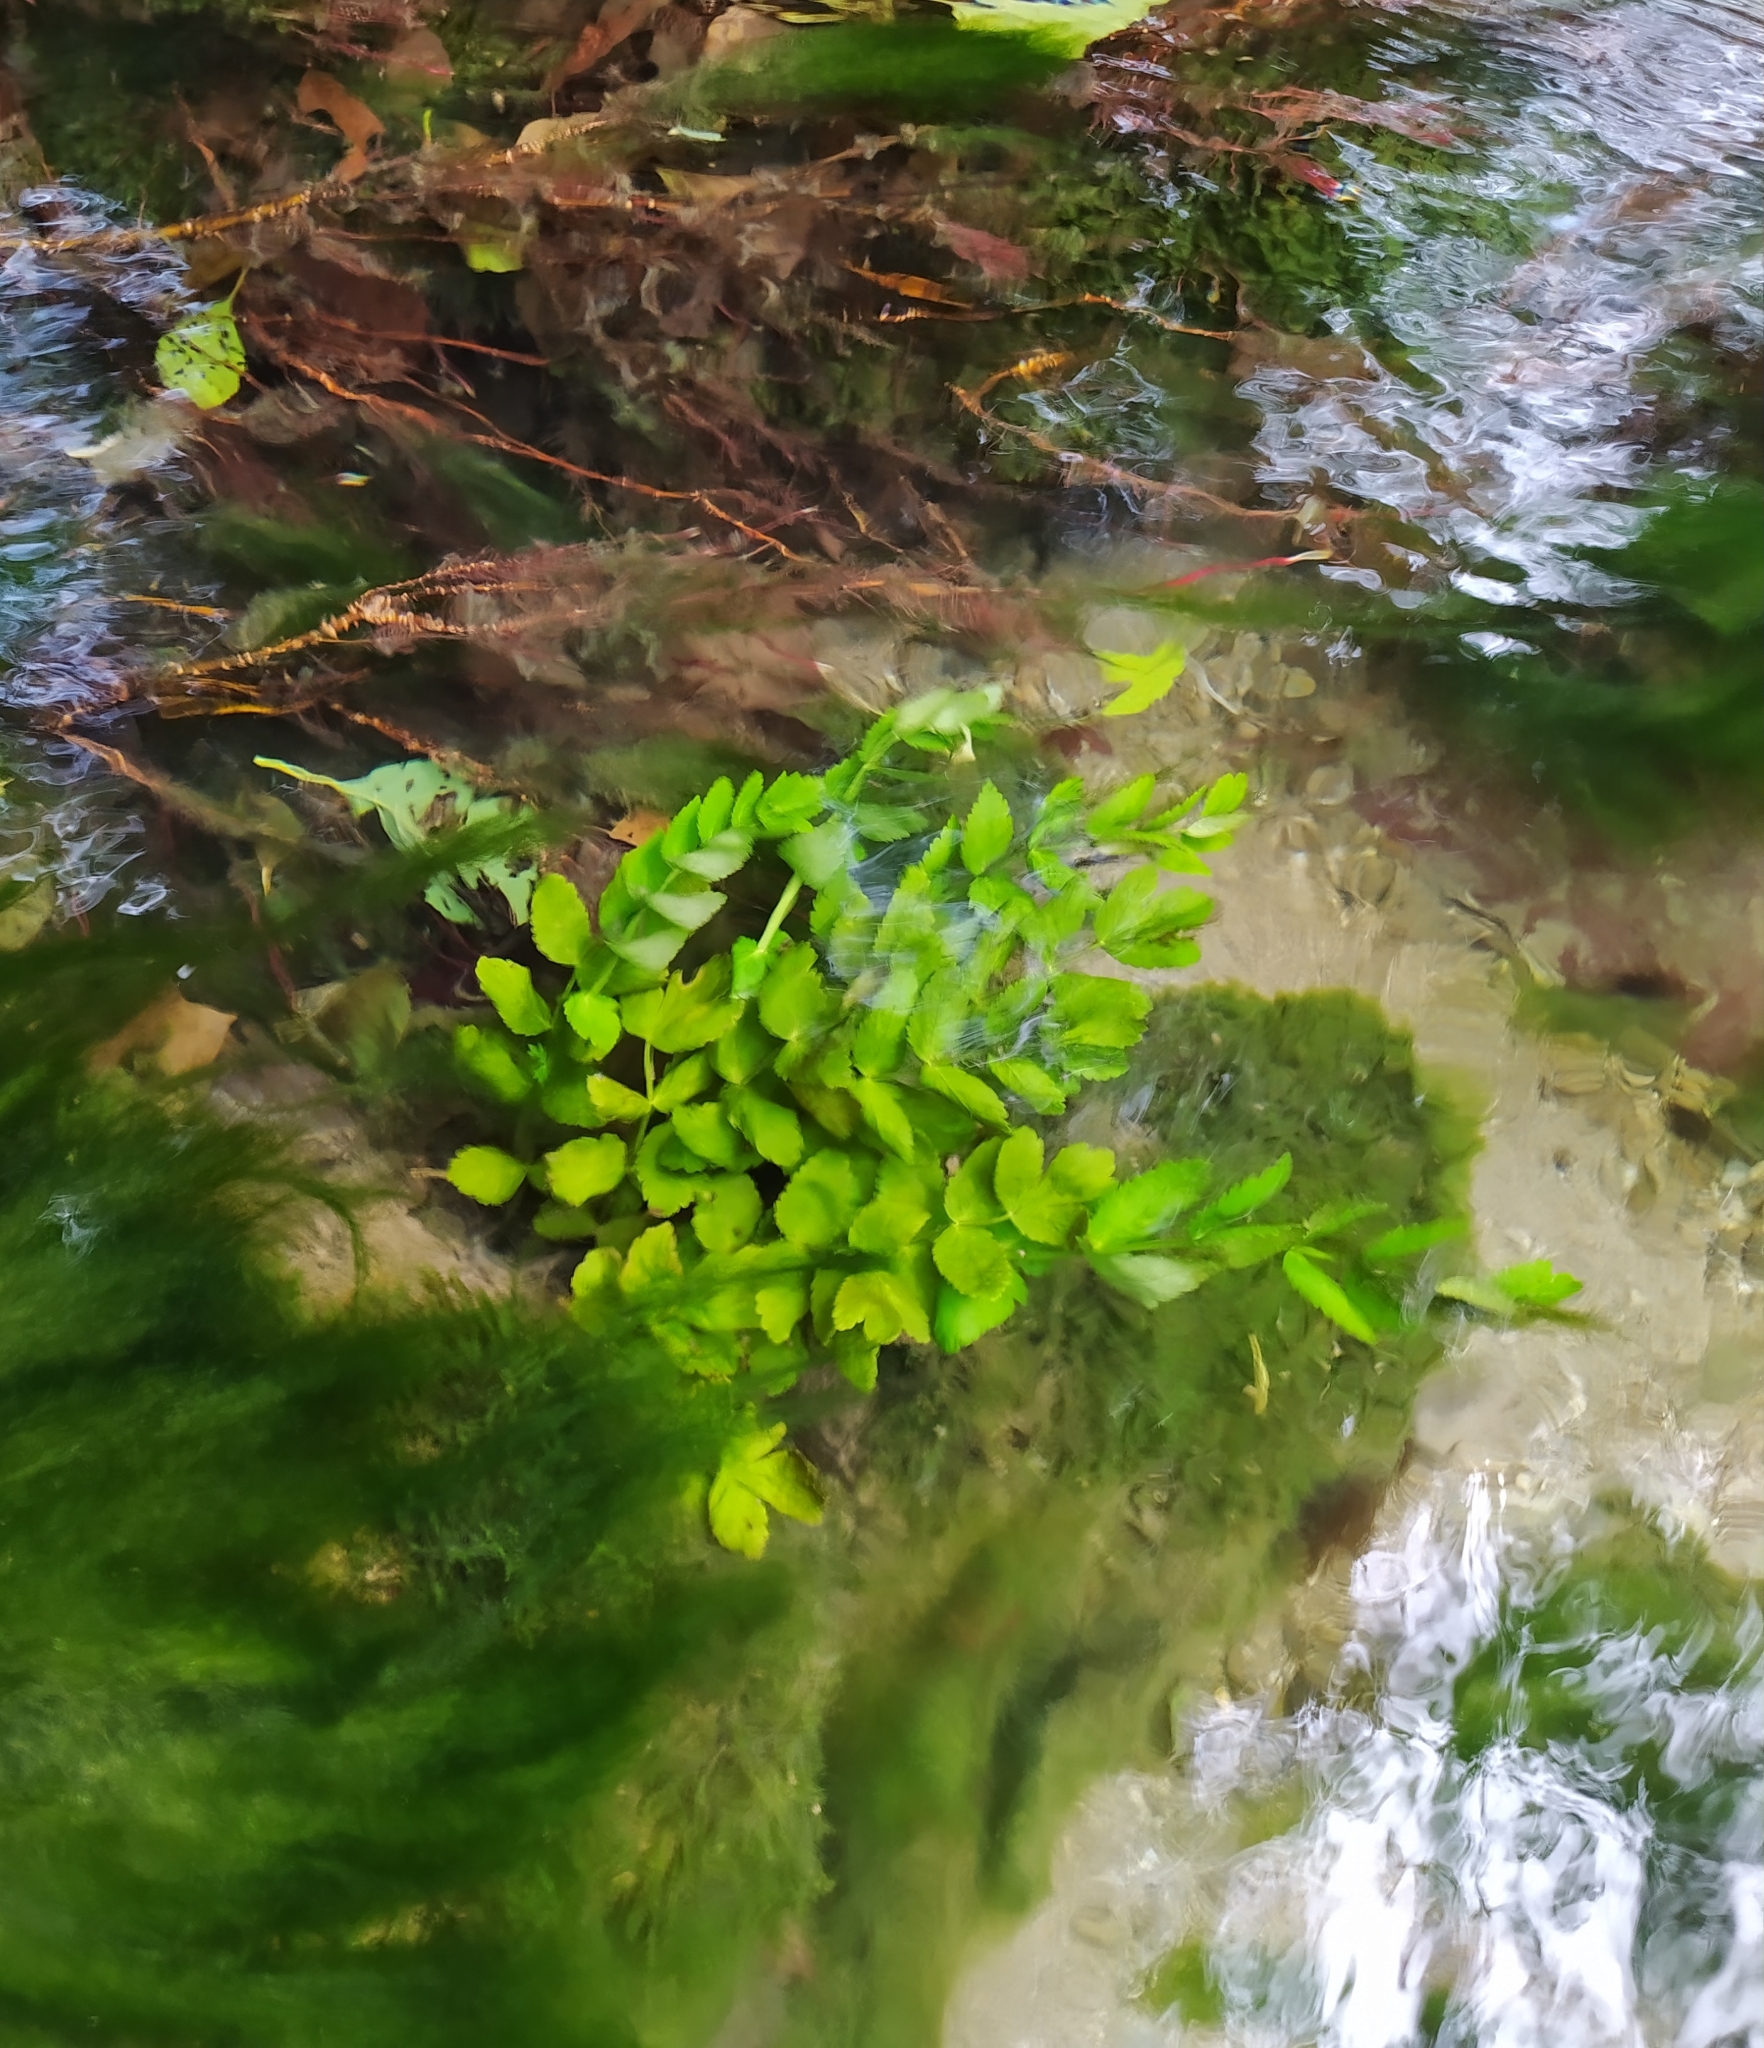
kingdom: Plantae
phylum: Tracheophyta
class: Magnoliopsida
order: Apiales
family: Apiaceae
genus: Berula
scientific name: Berula erecta
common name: Lesser water-parsnip
